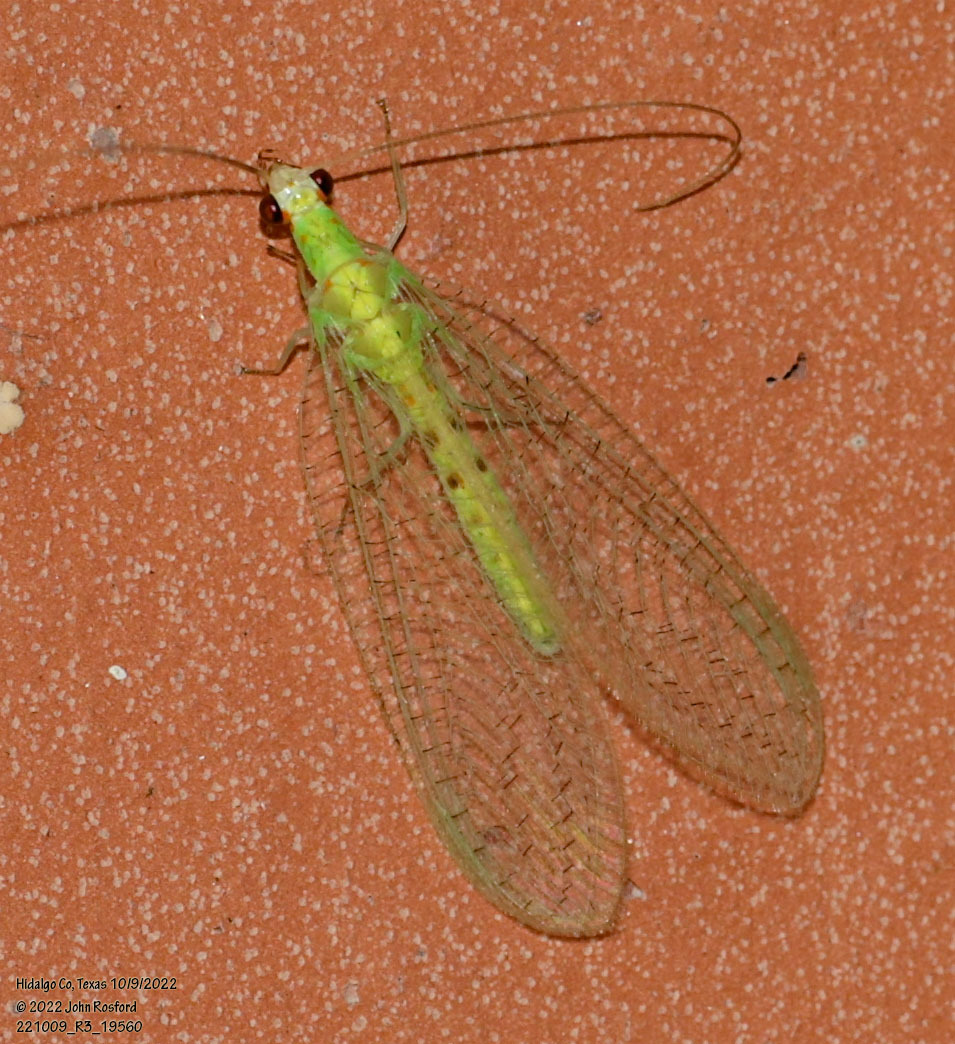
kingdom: Animalia
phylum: Arthropoda
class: Insecta
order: Neuroptera
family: Chrysopidae
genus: Chrysopa
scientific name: Chrysopa quadripunctata
